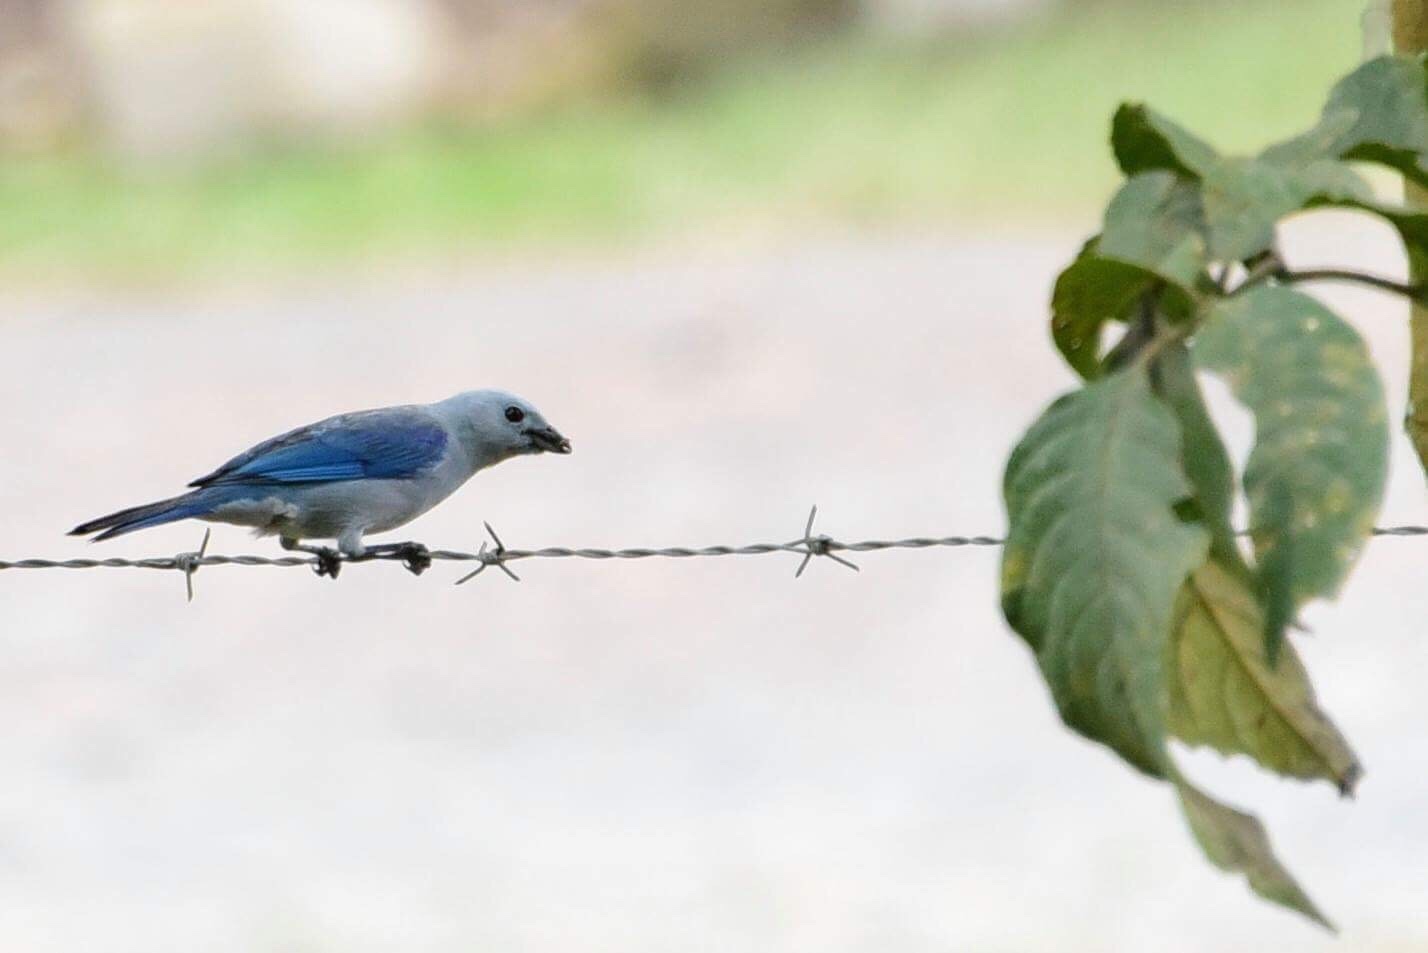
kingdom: Animalia
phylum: Chordata
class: Aves
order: Passeriformes
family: Thraupidae
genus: Thraupis
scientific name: Thraupis episcopus
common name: Blue-grey tanager
